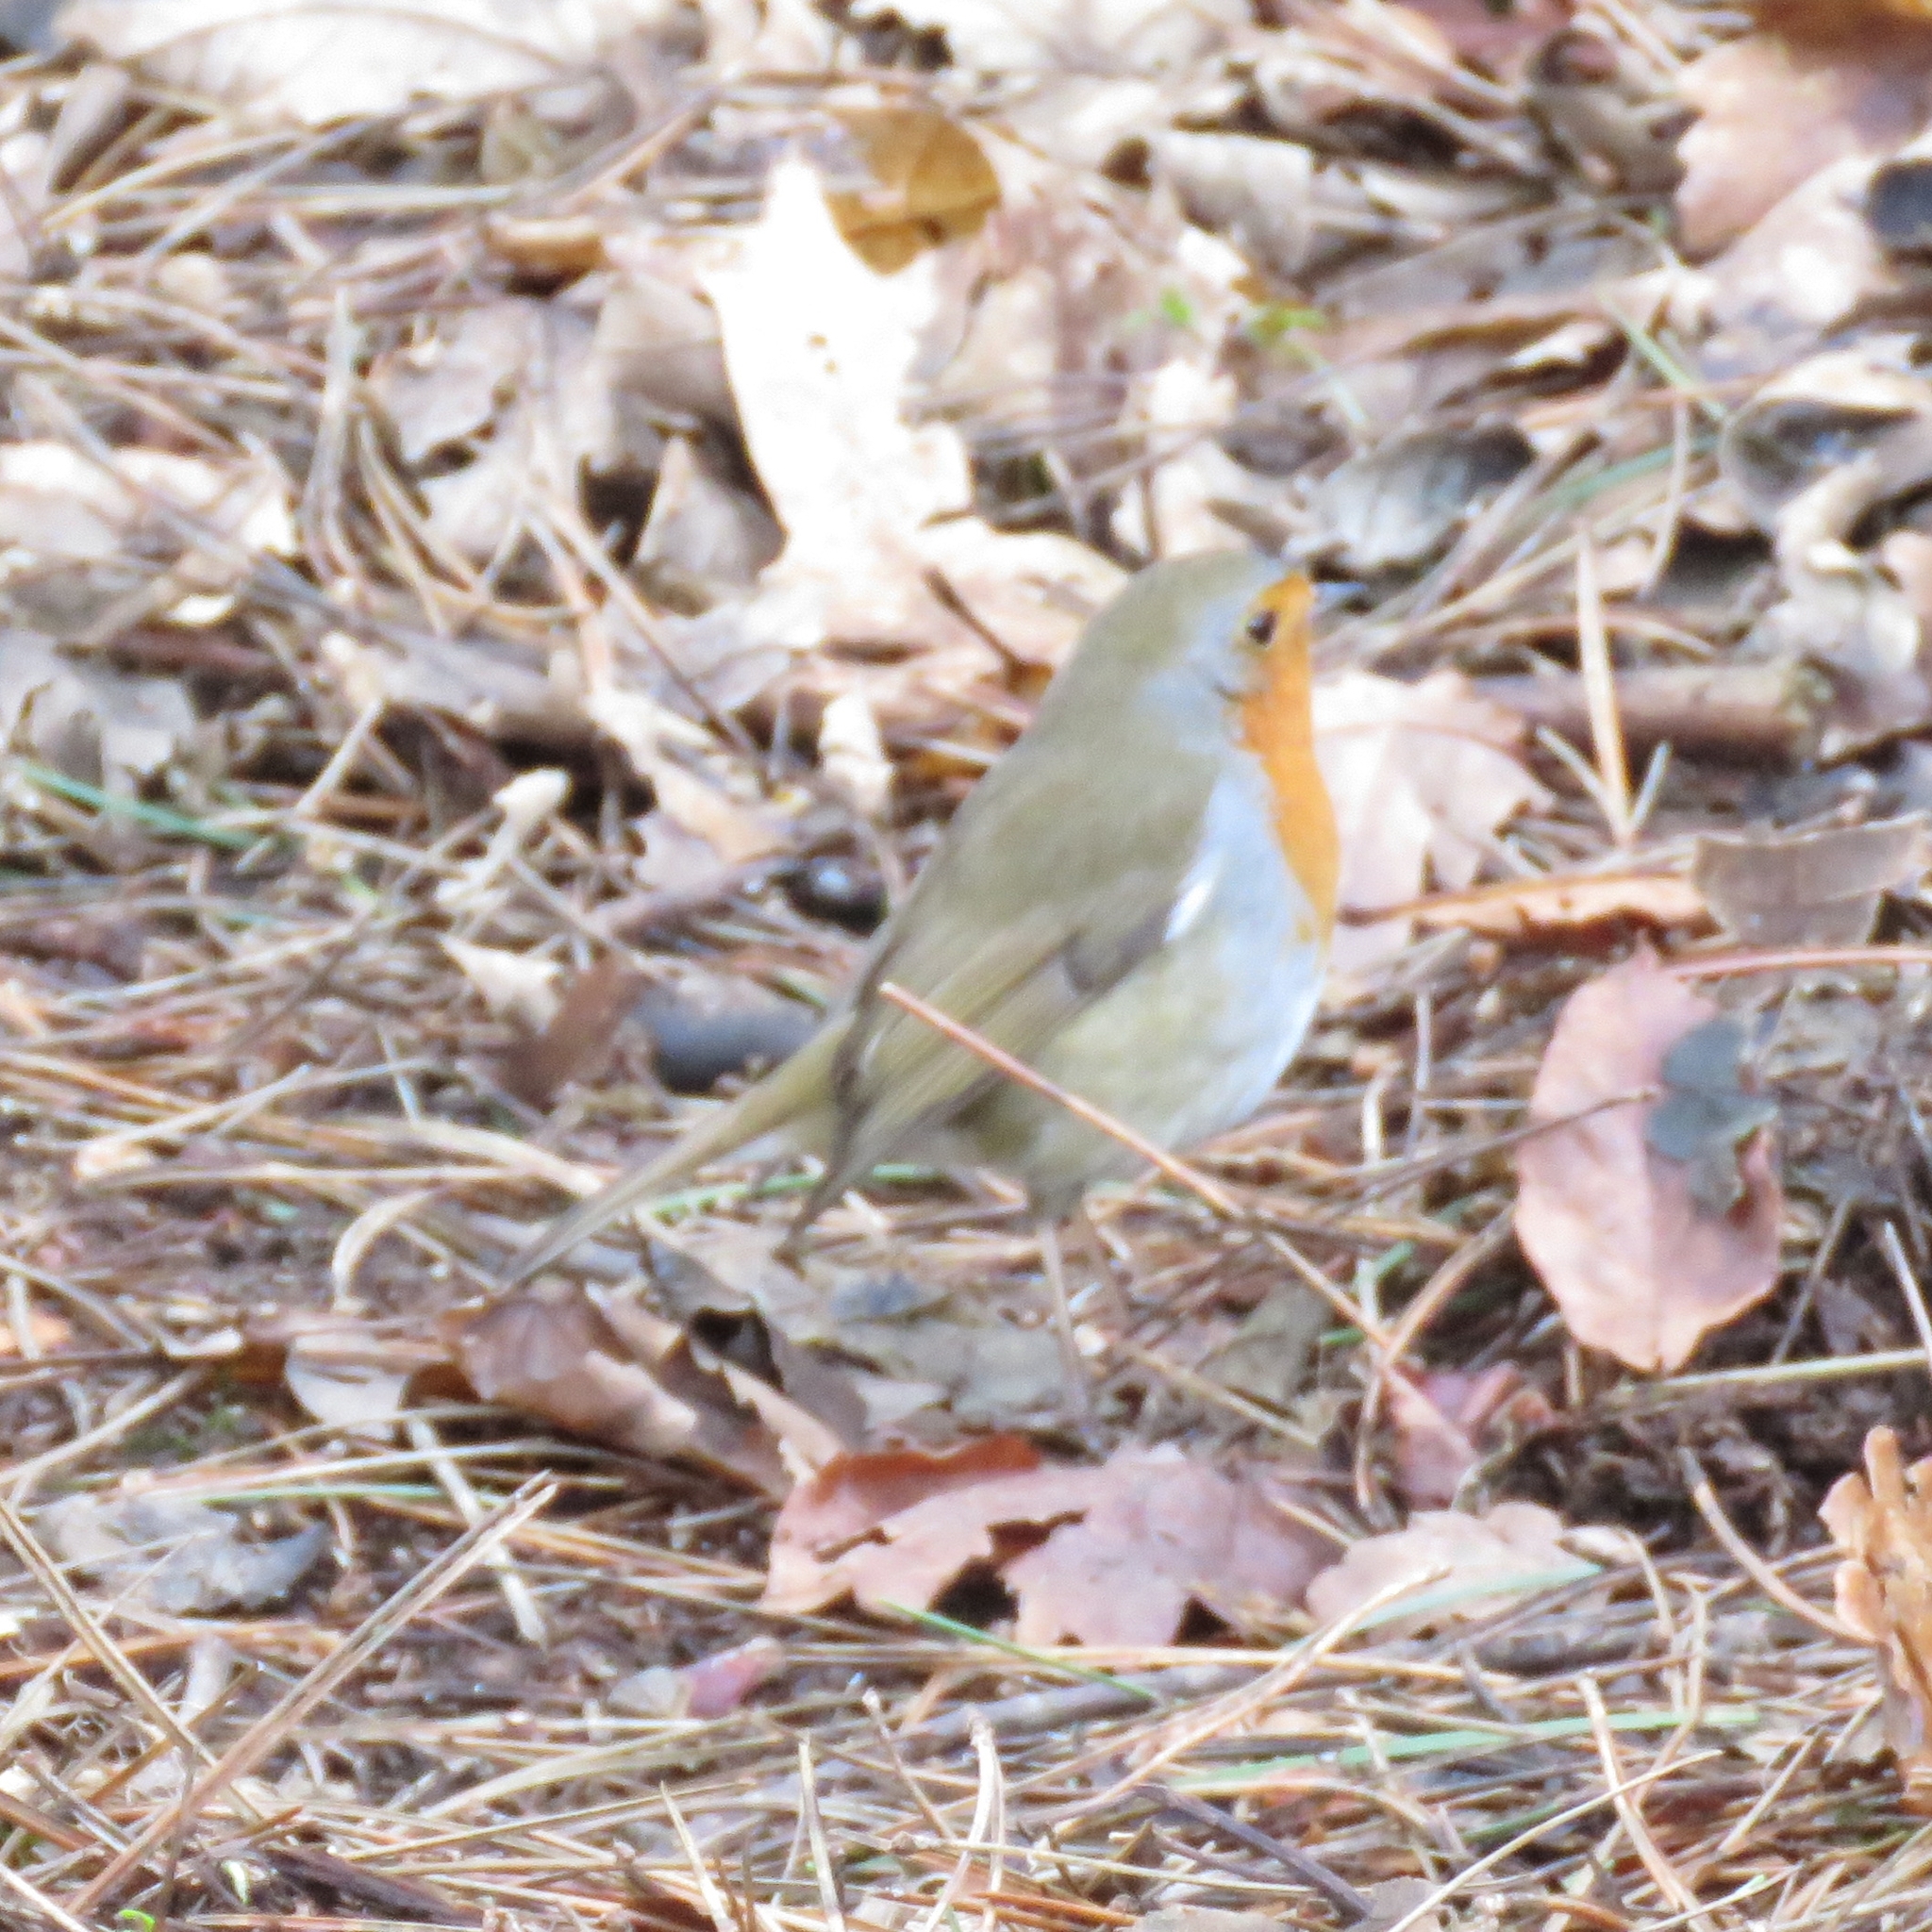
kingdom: Animalia
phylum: Chordata
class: Aves
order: Passeriformes
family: Muscicapidae
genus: Erithacus
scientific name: Erithacus rubecula
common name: European robin
